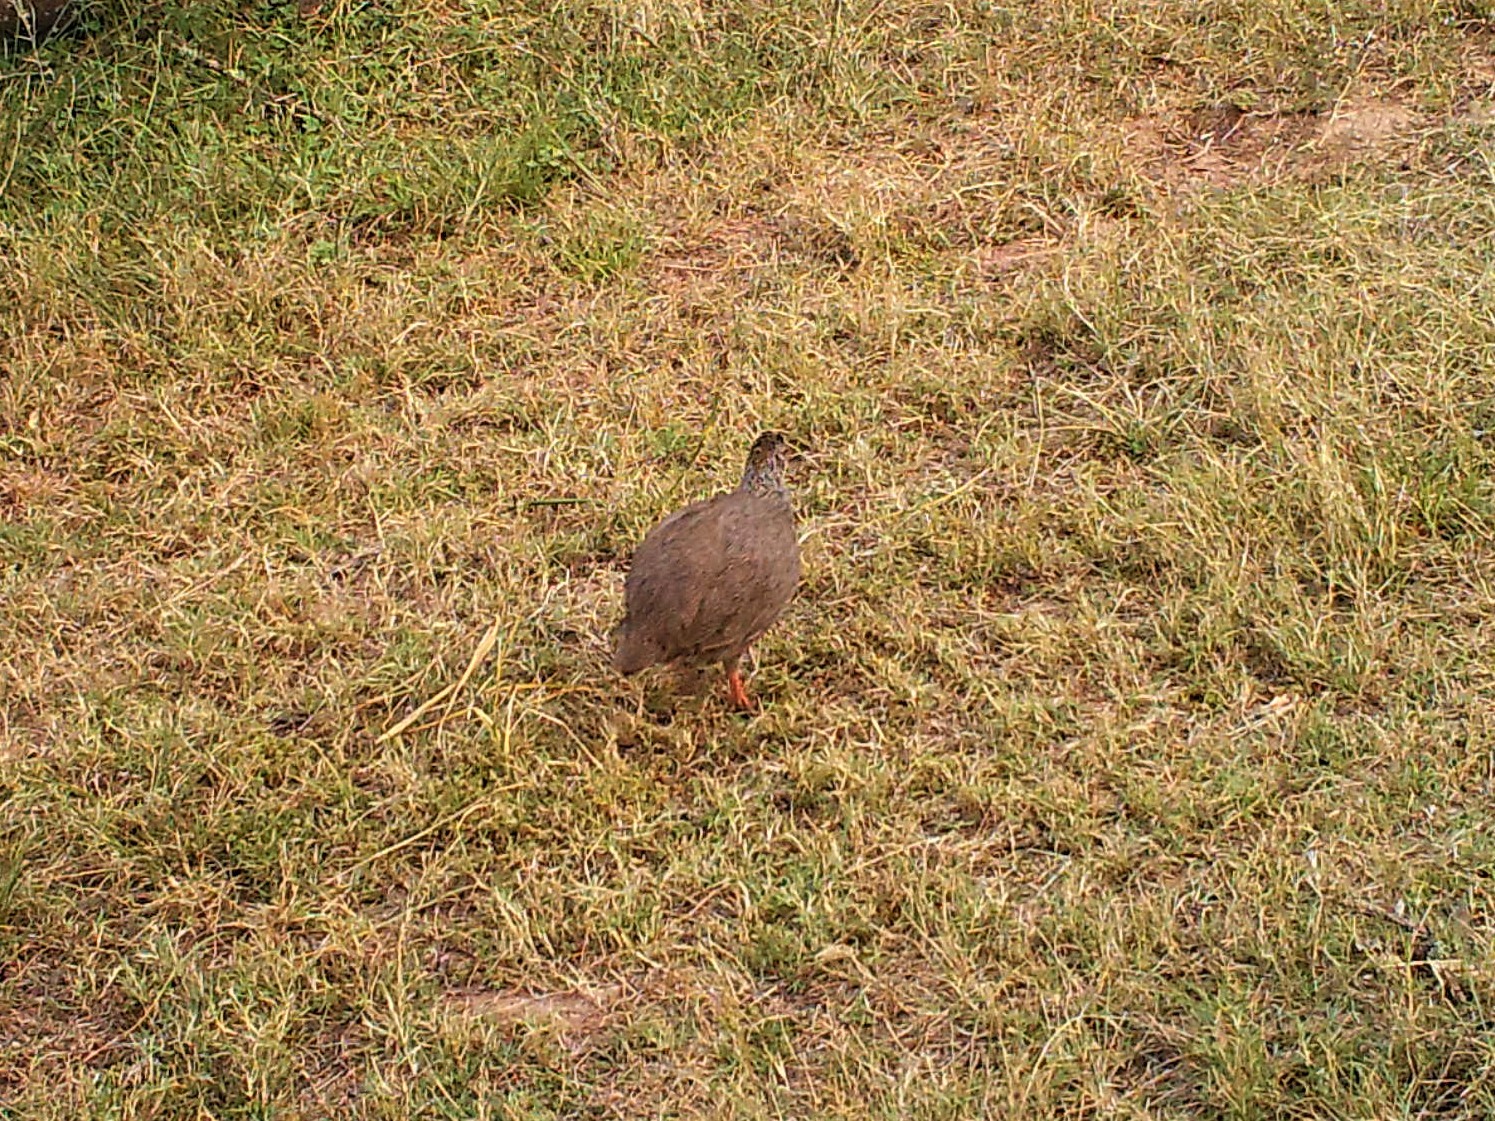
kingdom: Animalia
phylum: Chordata
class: Aves
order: Galliformes
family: Phasianidae
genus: Pternistis
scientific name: Pternistis capensis
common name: Cape spurfowl
